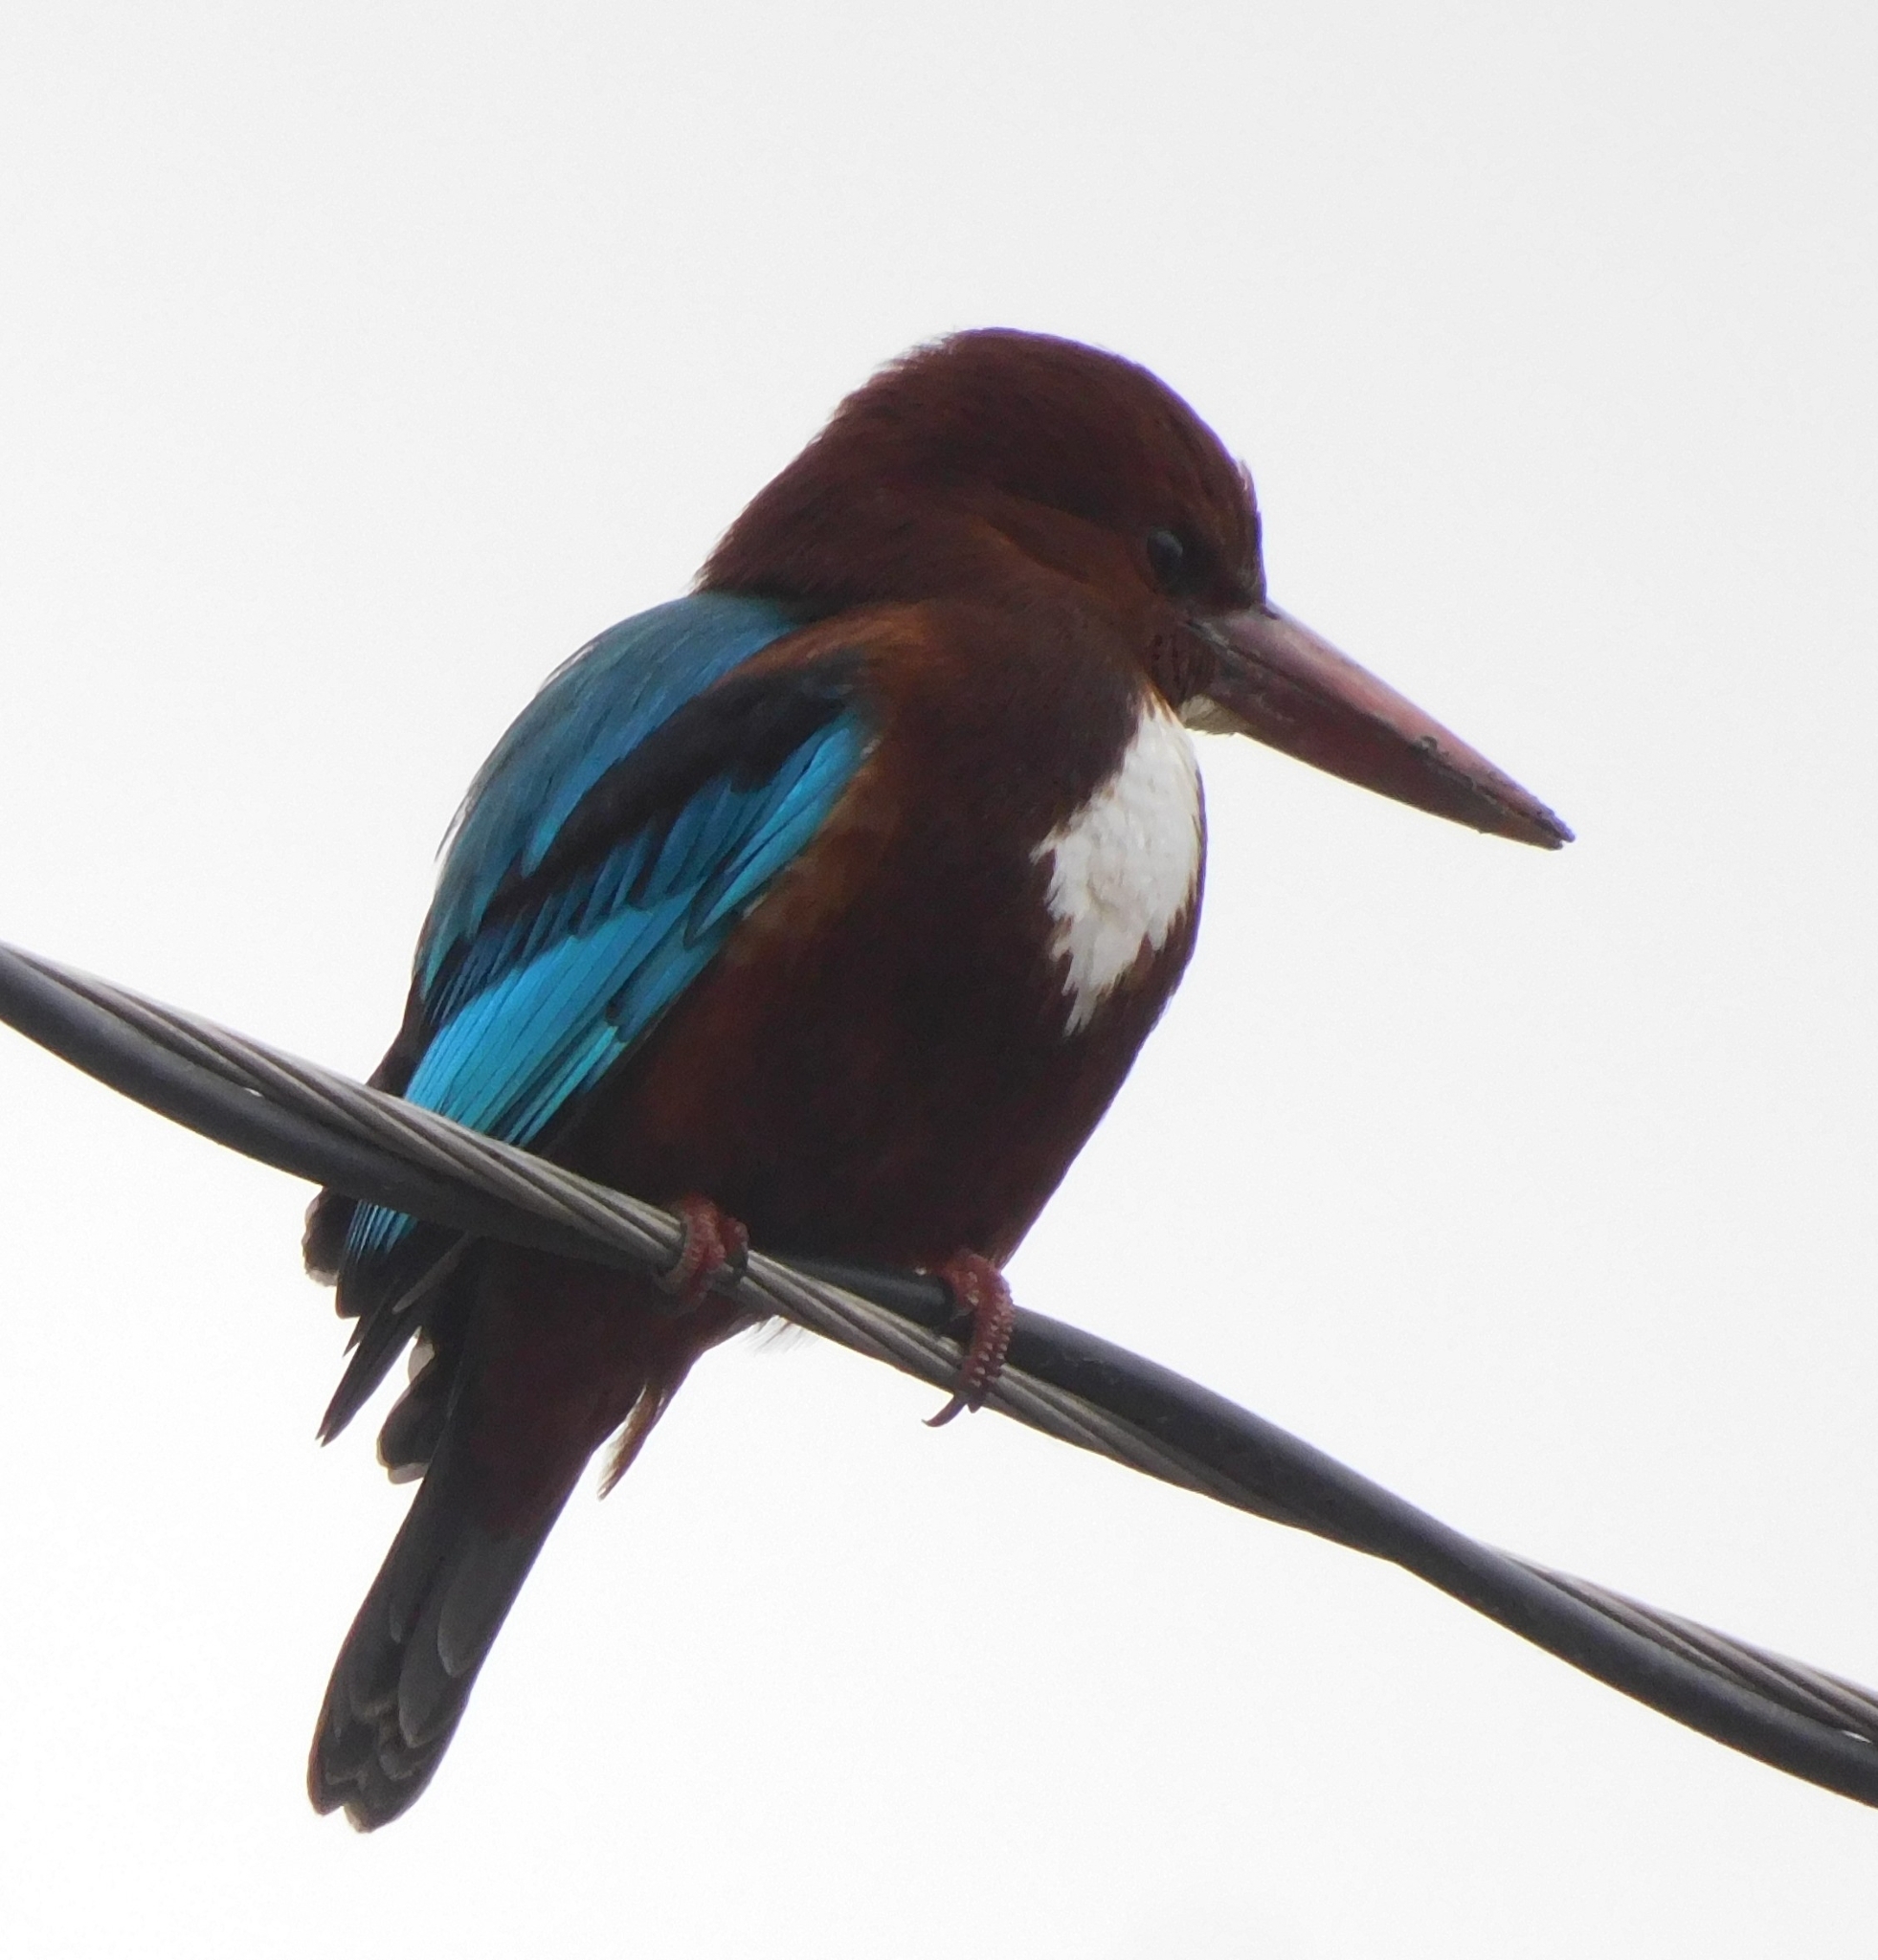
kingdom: Animalia
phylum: Chordata
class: Aves
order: Coraciiformes
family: Alcedinidae
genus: Halcyon
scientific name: Halcyon smyrnensis
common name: White-throated kingfisher
